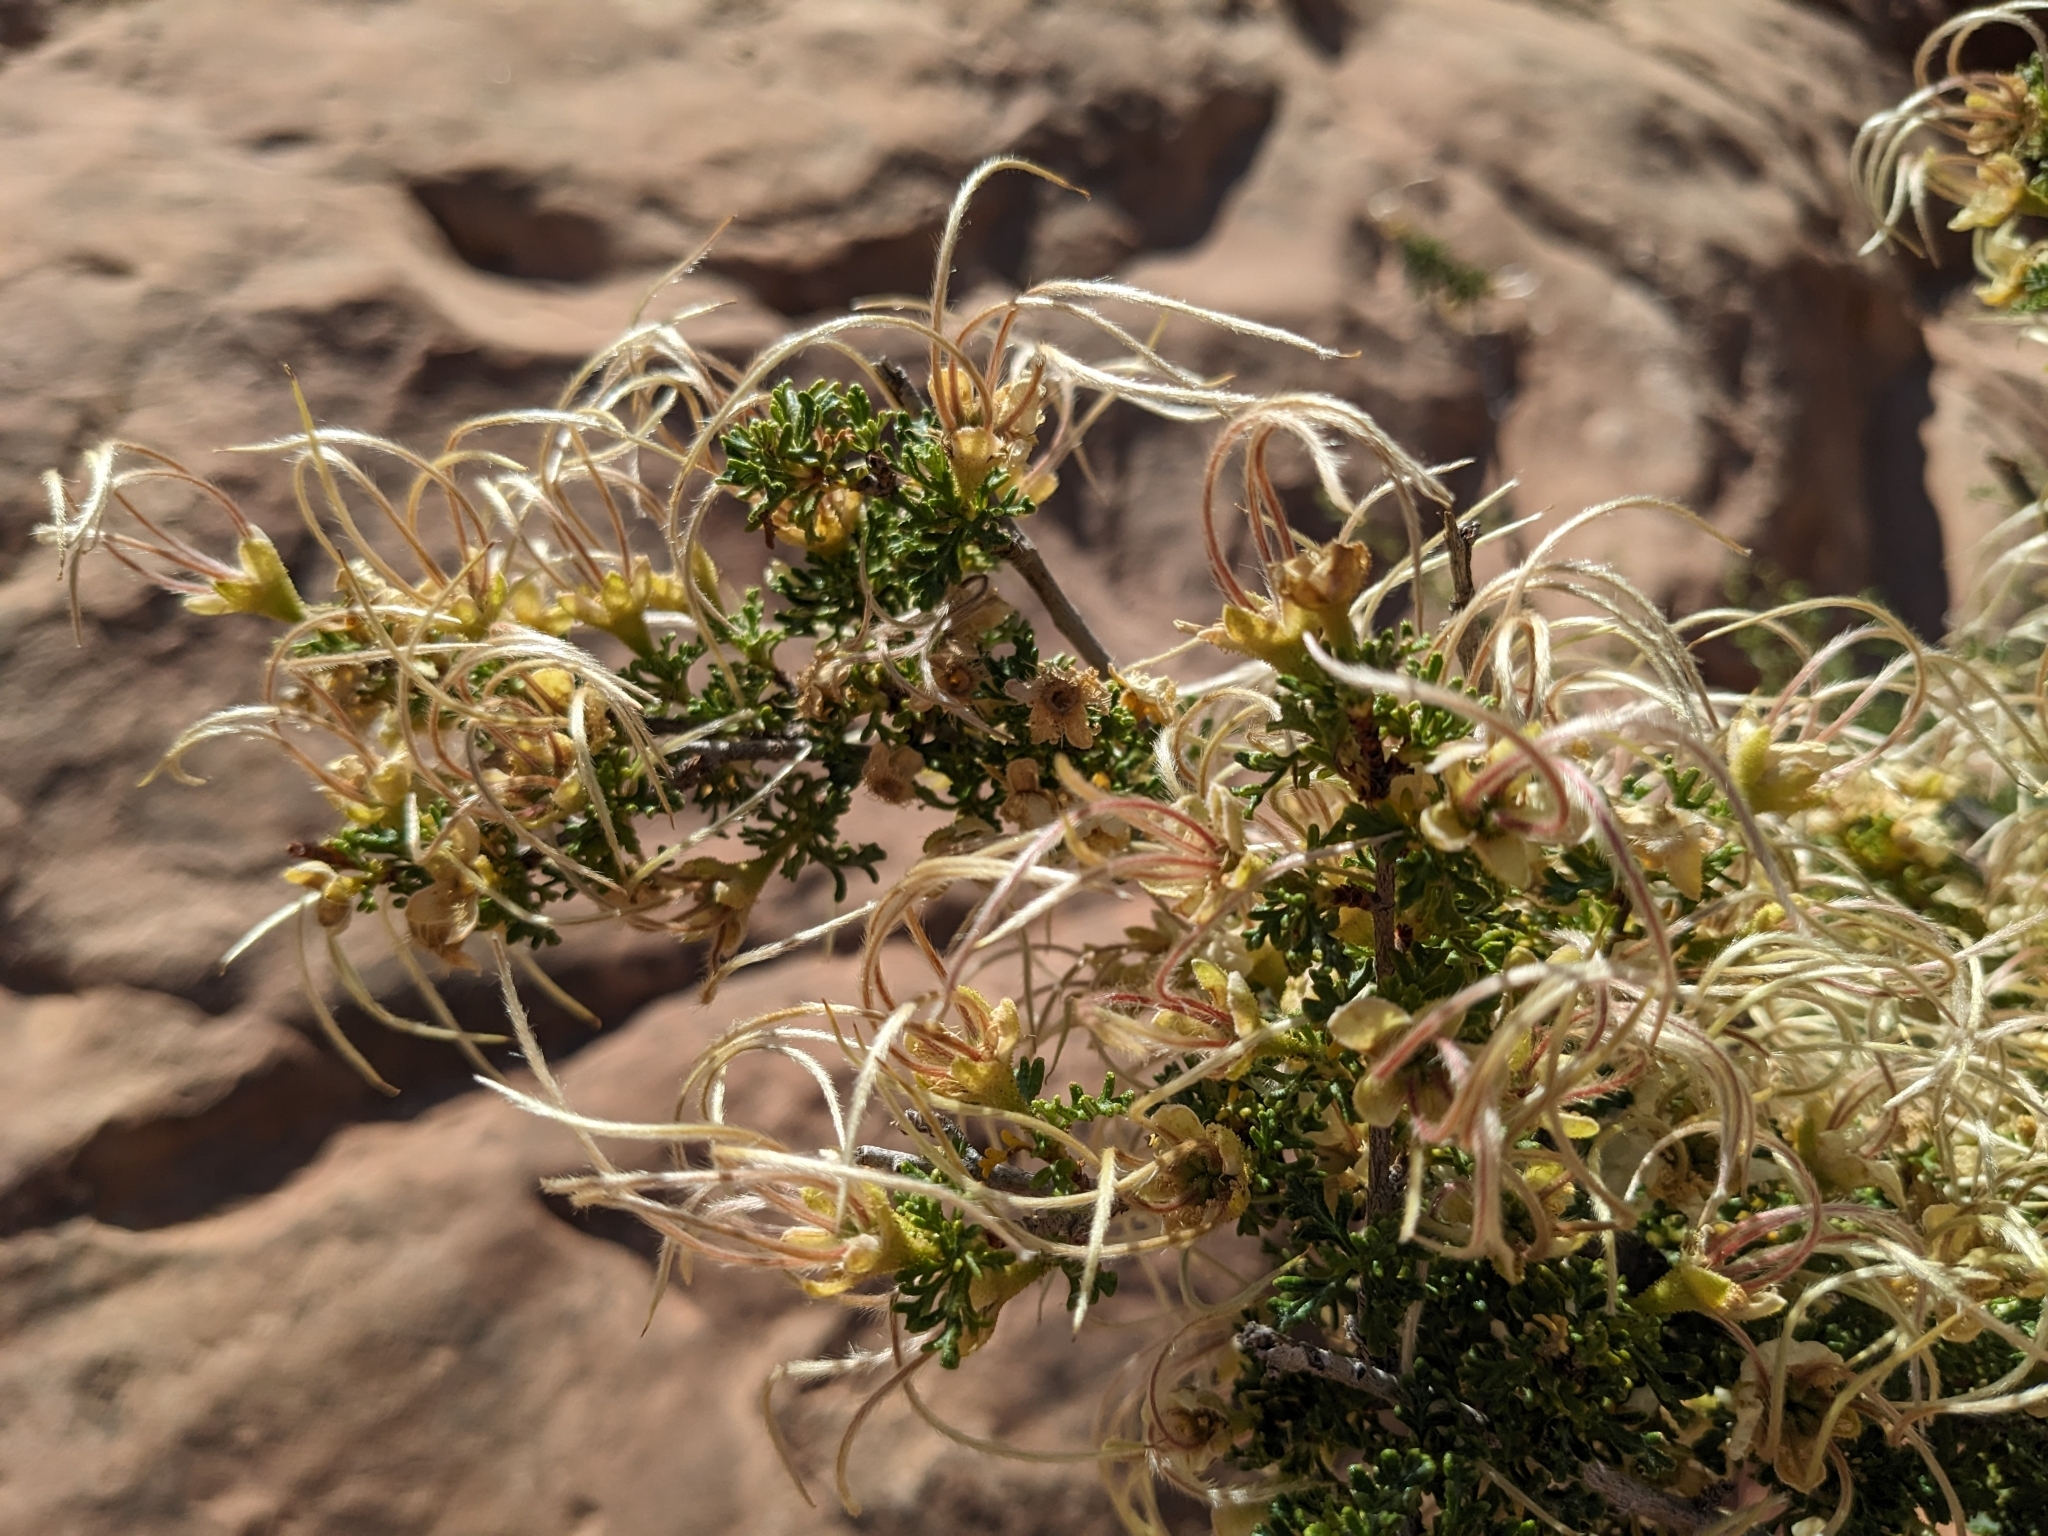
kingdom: Plantae
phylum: Tracheophyta
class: Magnoliopsida
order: Rosales
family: Rosaceae
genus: Purshia
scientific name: Purshia stansburiana
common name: Stansbury's cliffrose
